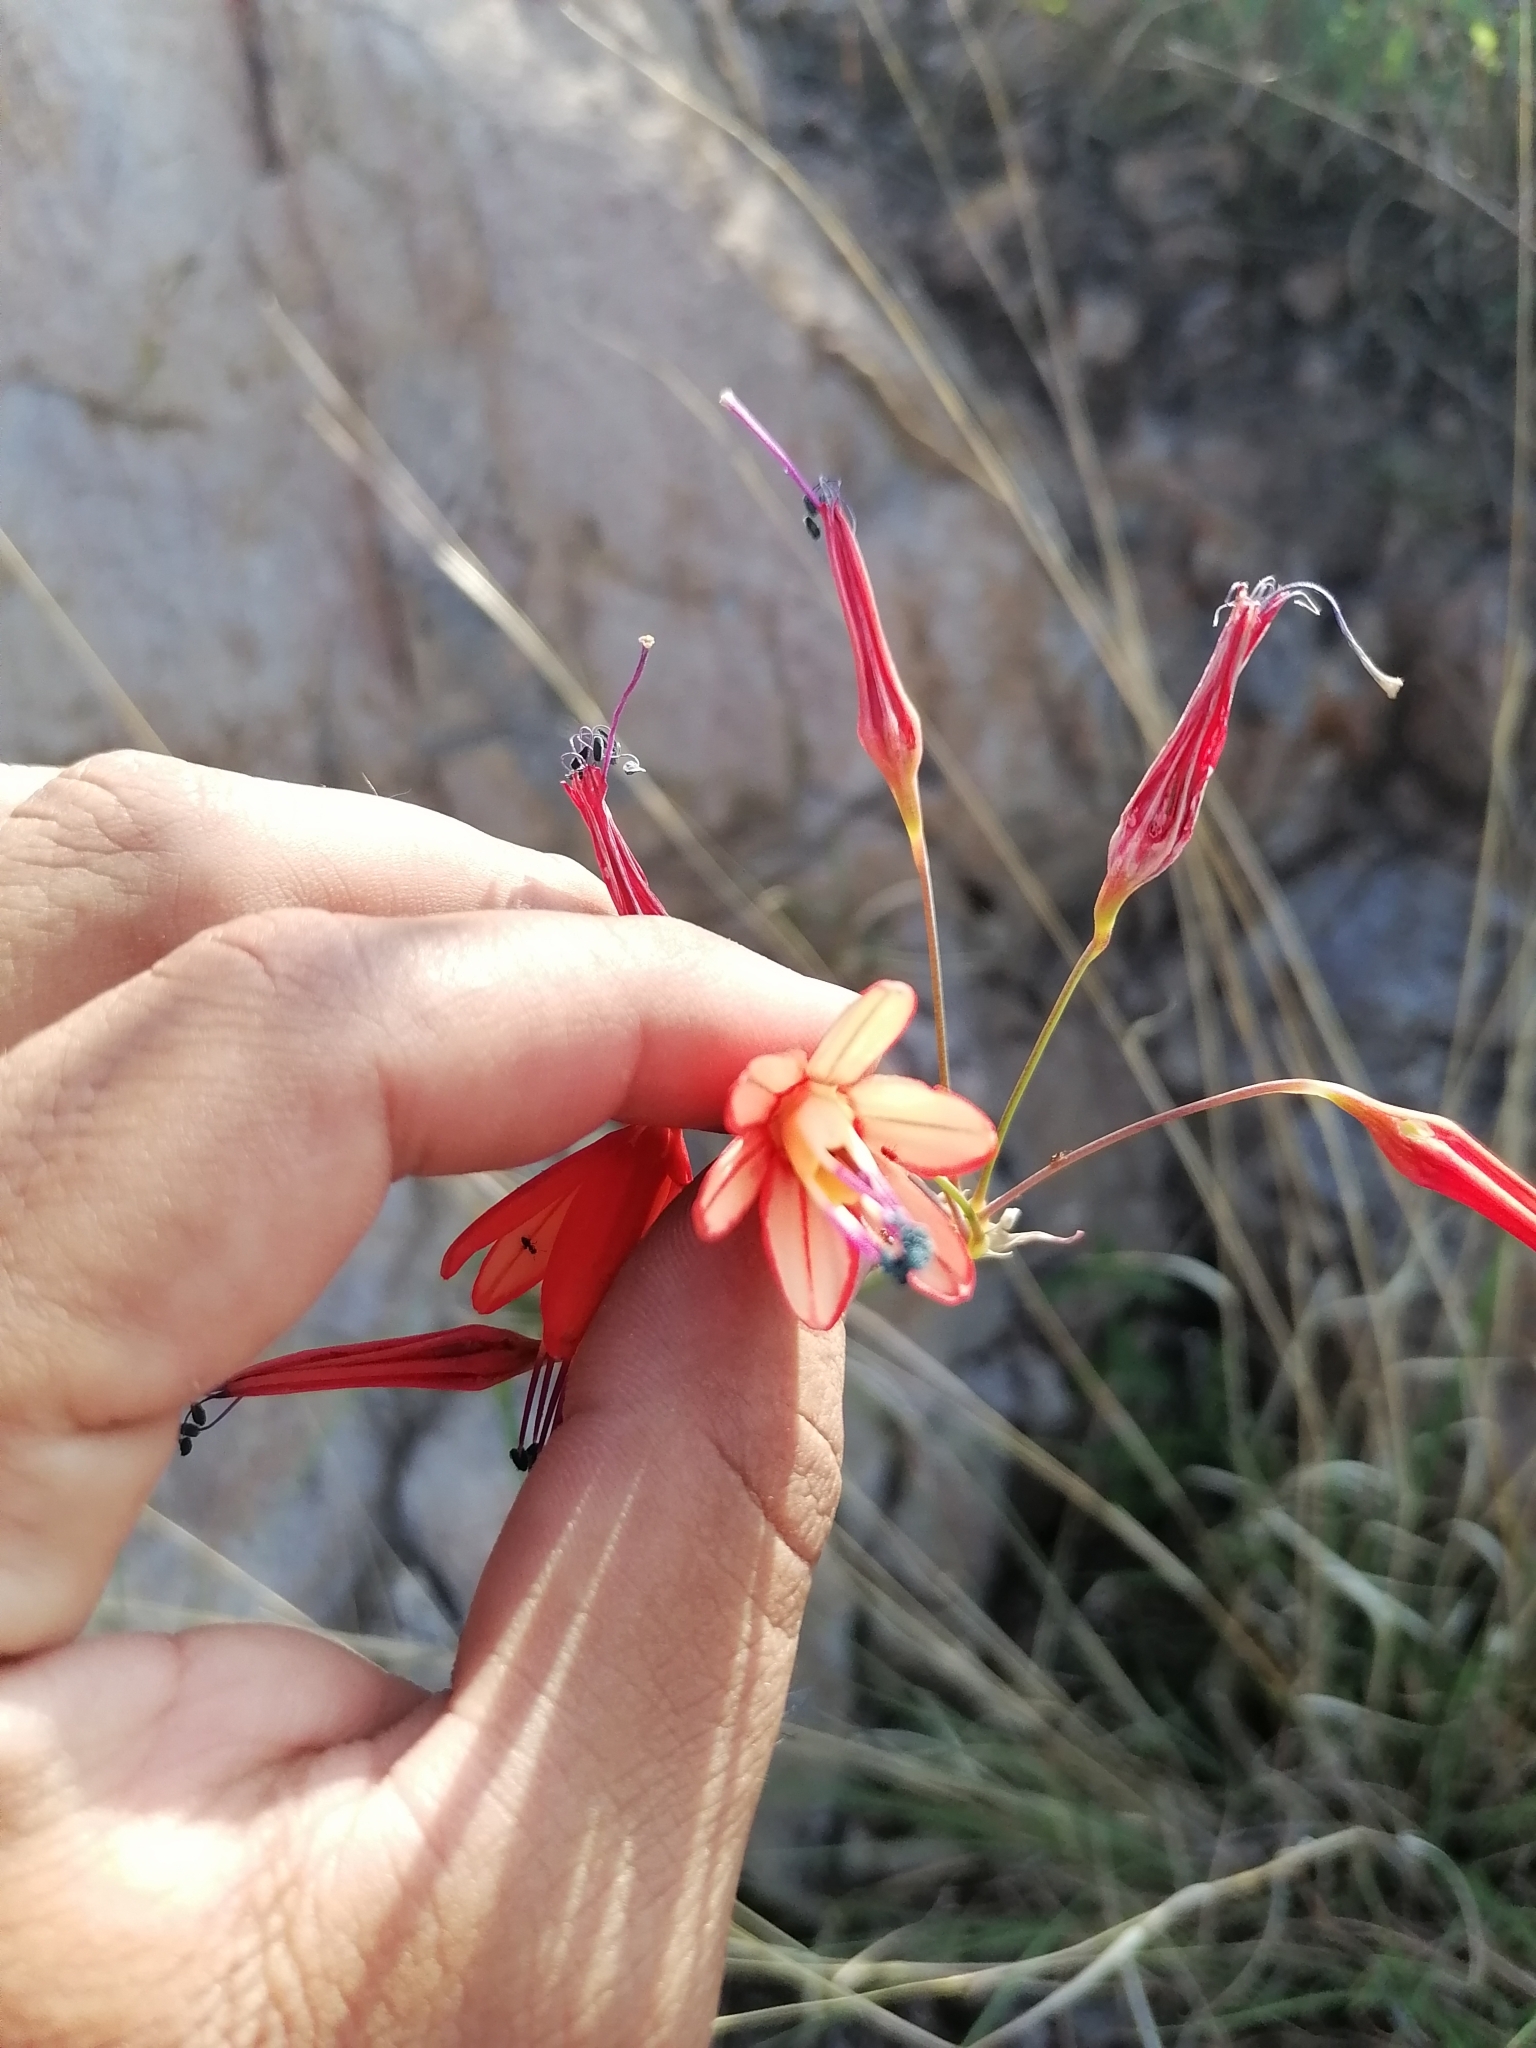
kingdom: Plantae
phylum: Tracheophyta
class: Liliopsida
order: Asparagales
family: Asparagaceae
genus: Bessera
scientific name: Bessera elegans
